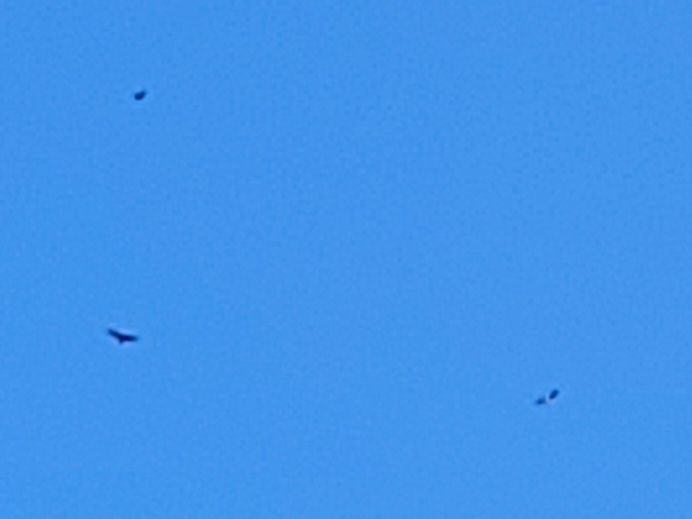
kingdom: Animalia
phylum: Chordata
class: Aves
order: Accipitriformes
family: Accipitridae
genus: Buteo
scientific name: Buteo buteo
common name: Common buzzard
